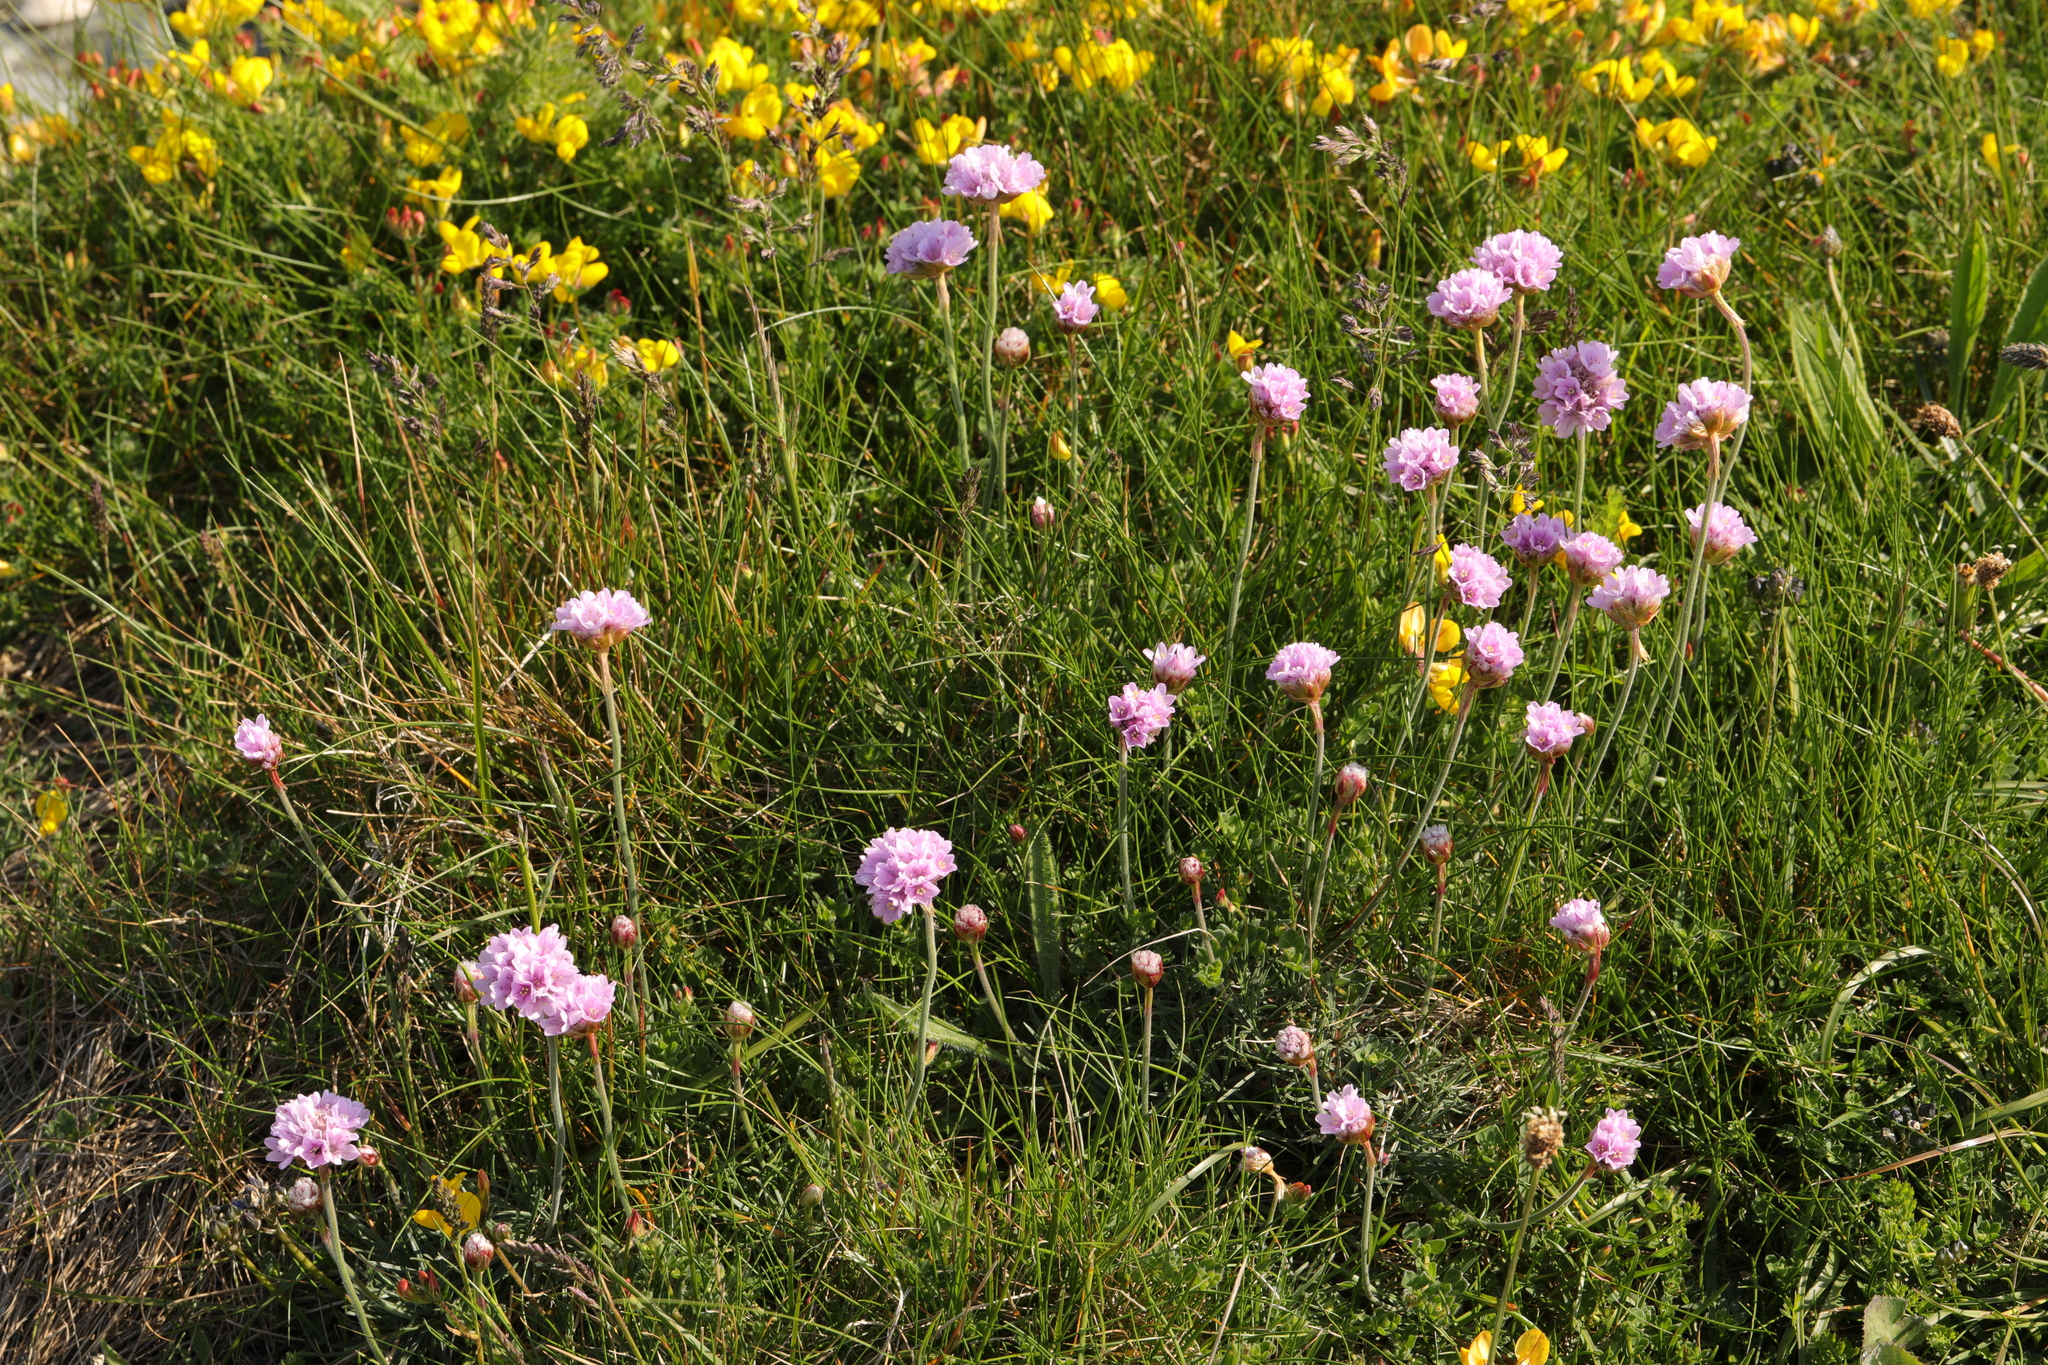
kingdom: Plantae
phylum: Tracheophyta
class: Magnoliopsida
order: Caryophyllales
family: Plumbaginaceae
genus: Armeria
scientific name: Armeria maritima
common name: Thrift
